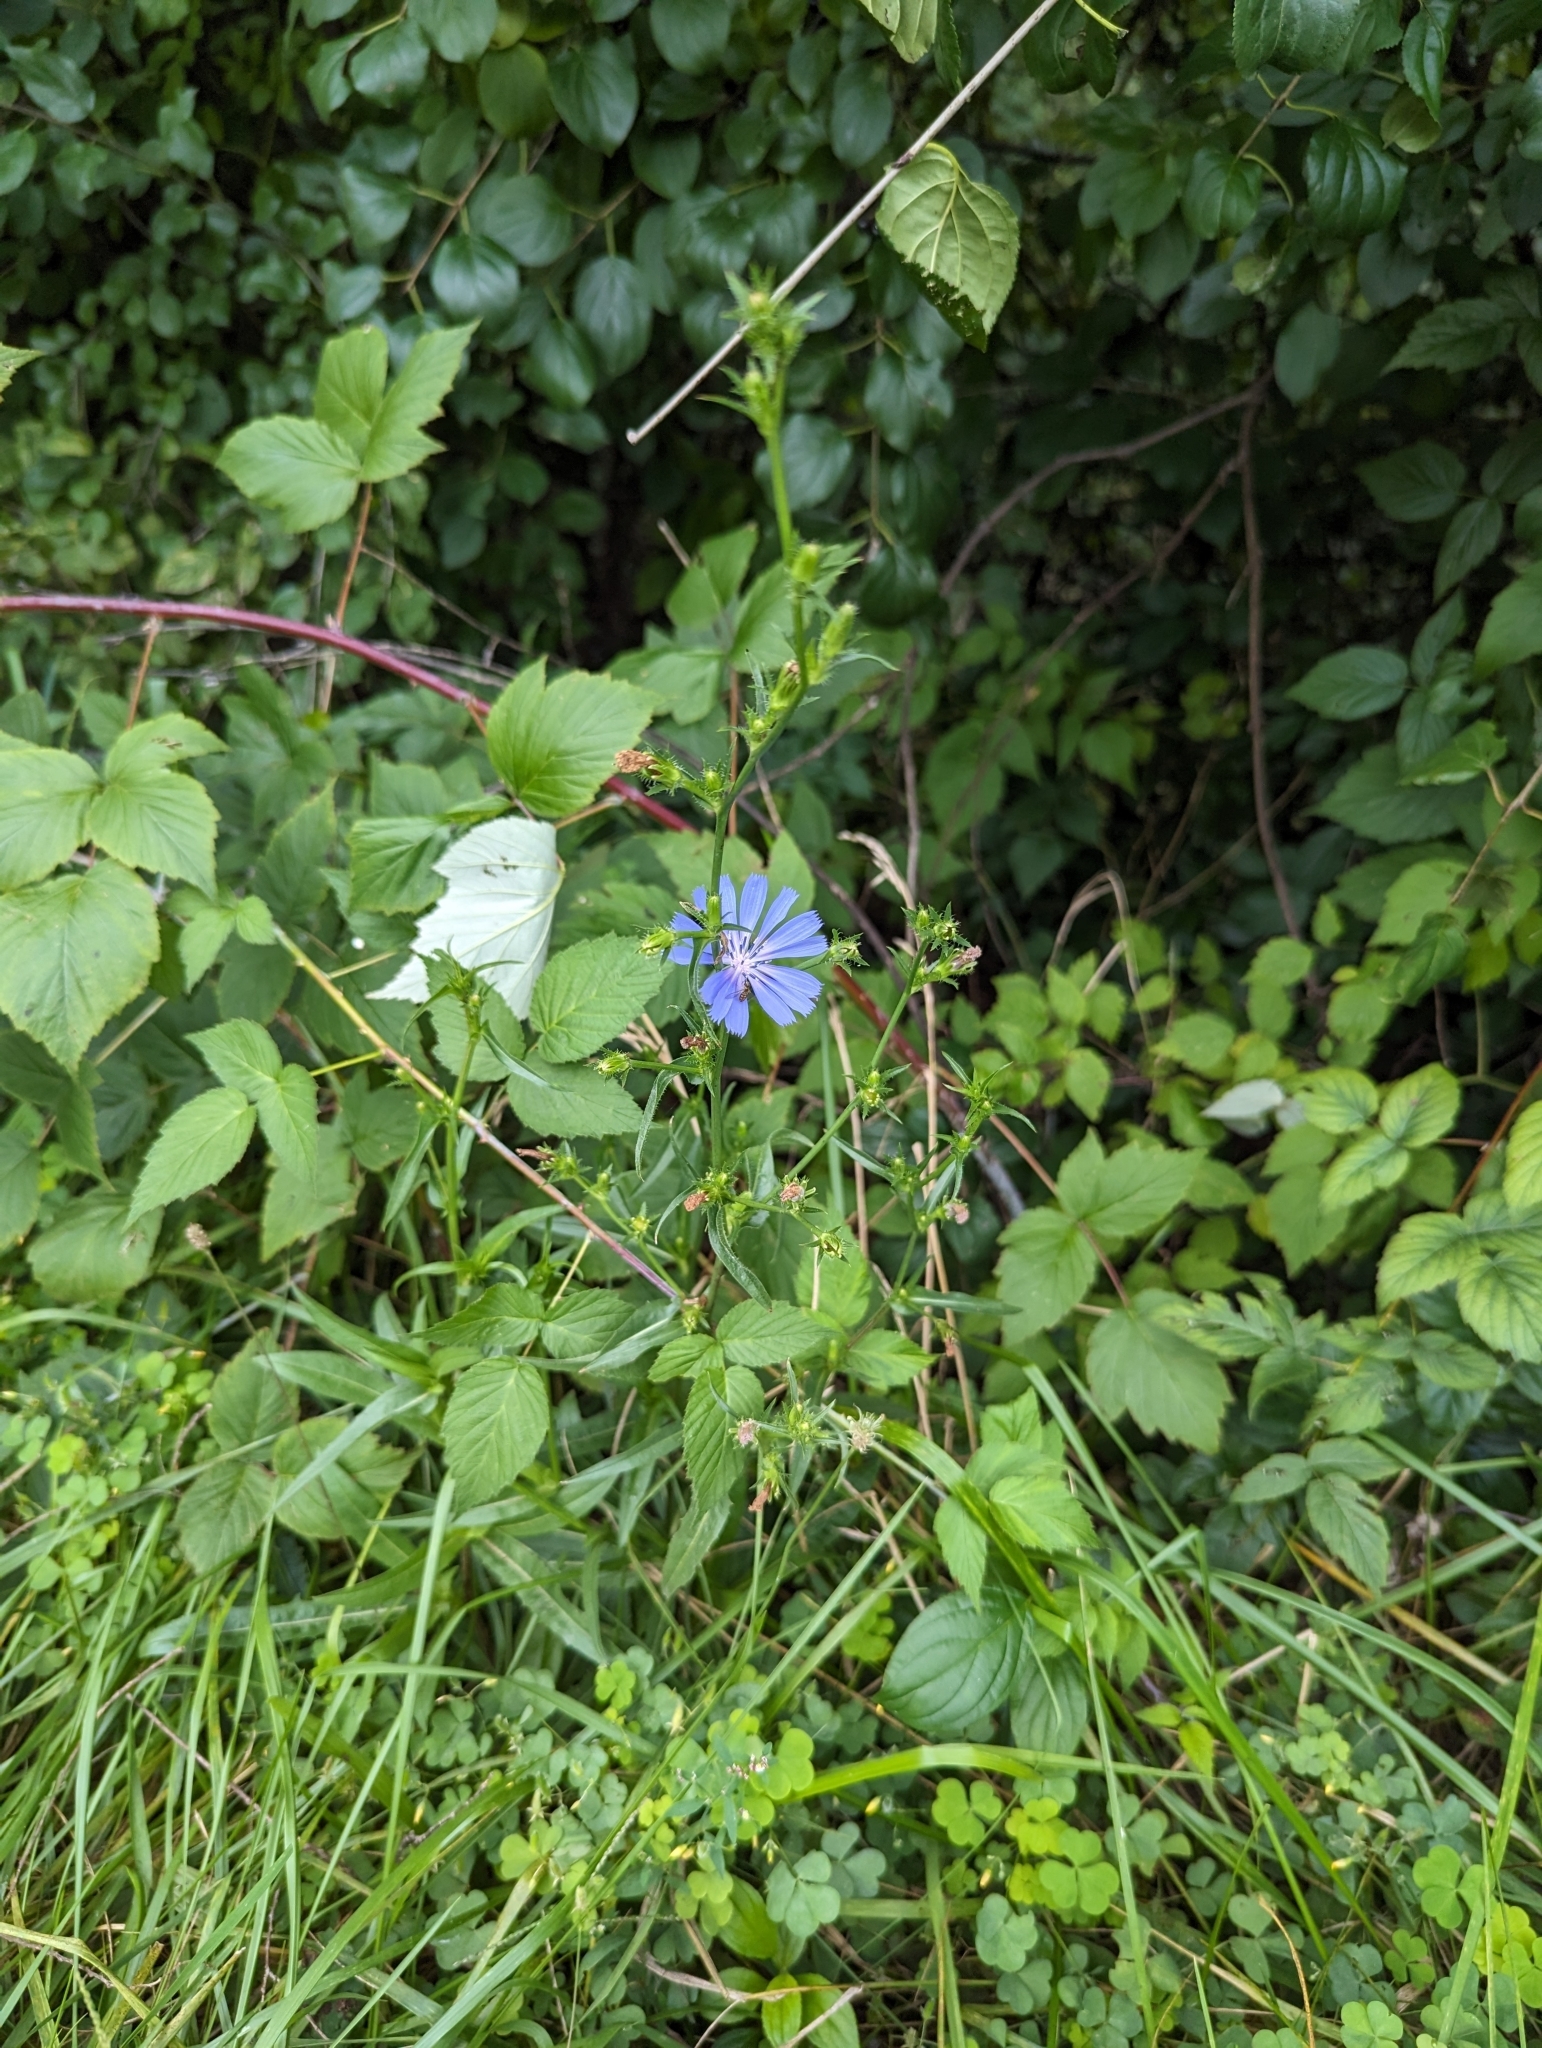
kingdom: Plantae
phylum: Tracheophyta
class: Magnoliopsida
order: Asterales
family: Asteraceae
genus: Cichorium
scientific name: Cichorium intybus
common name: Chicory
